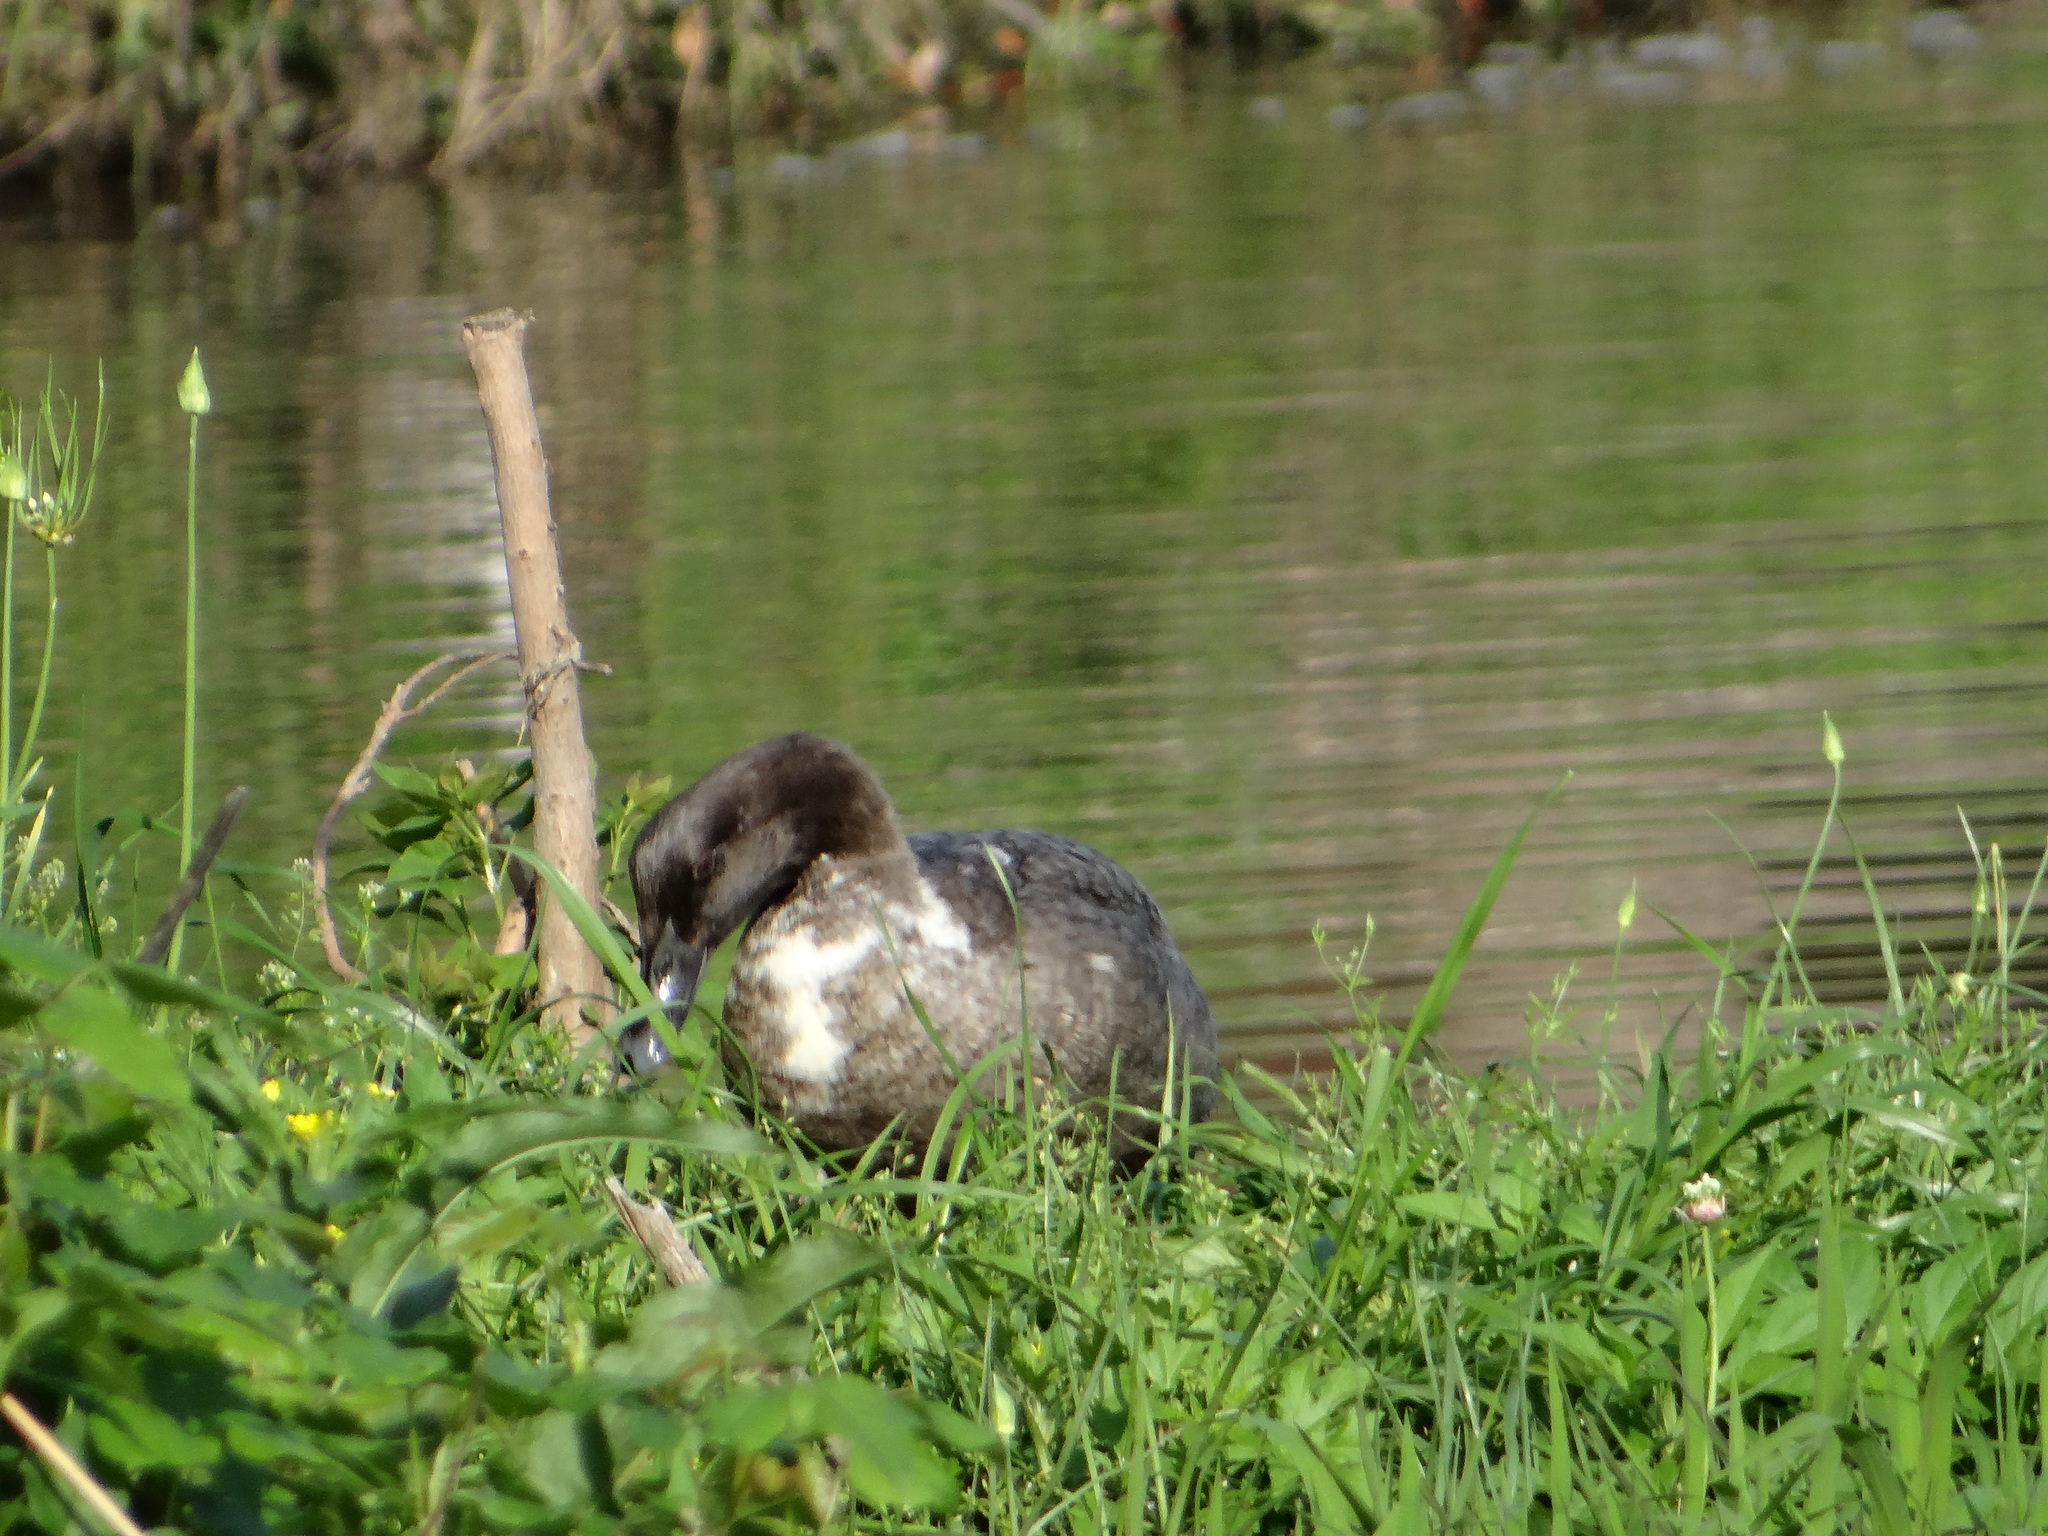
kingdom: Animalia
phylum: Chordata
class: Aves
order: Anseriformes
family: Anatidae
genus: Anas
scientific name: Anas platyrhynchos
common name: Mallard
